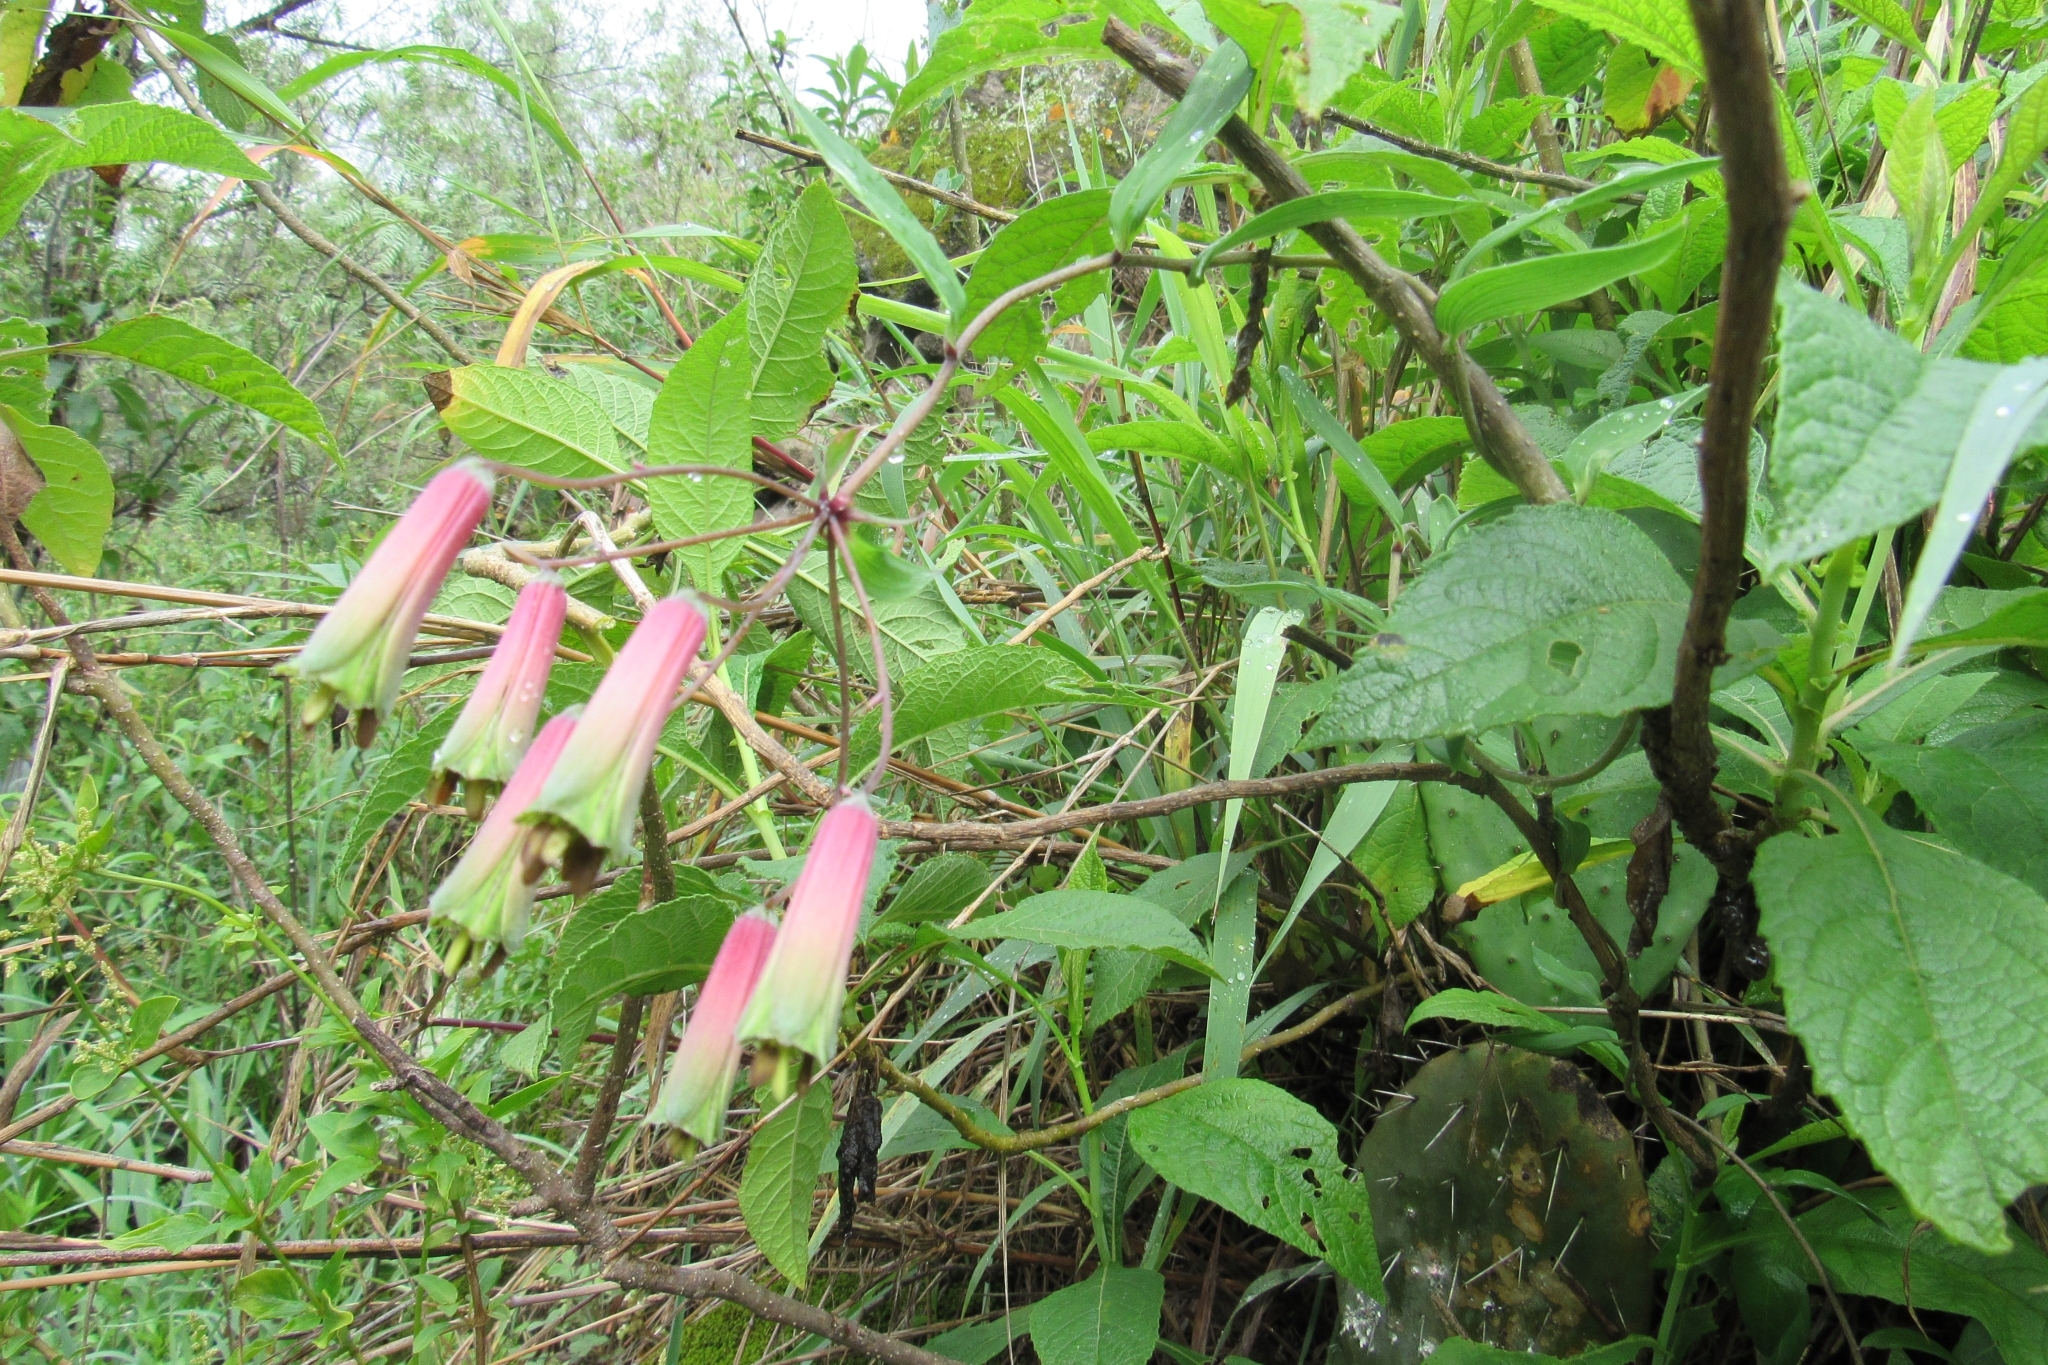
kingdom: Plantae
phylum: Tracheophyta
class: Liliopsida
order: Liliales
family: Alstroemeriaceae
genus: Bomarea
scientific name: Bomarea ovata
